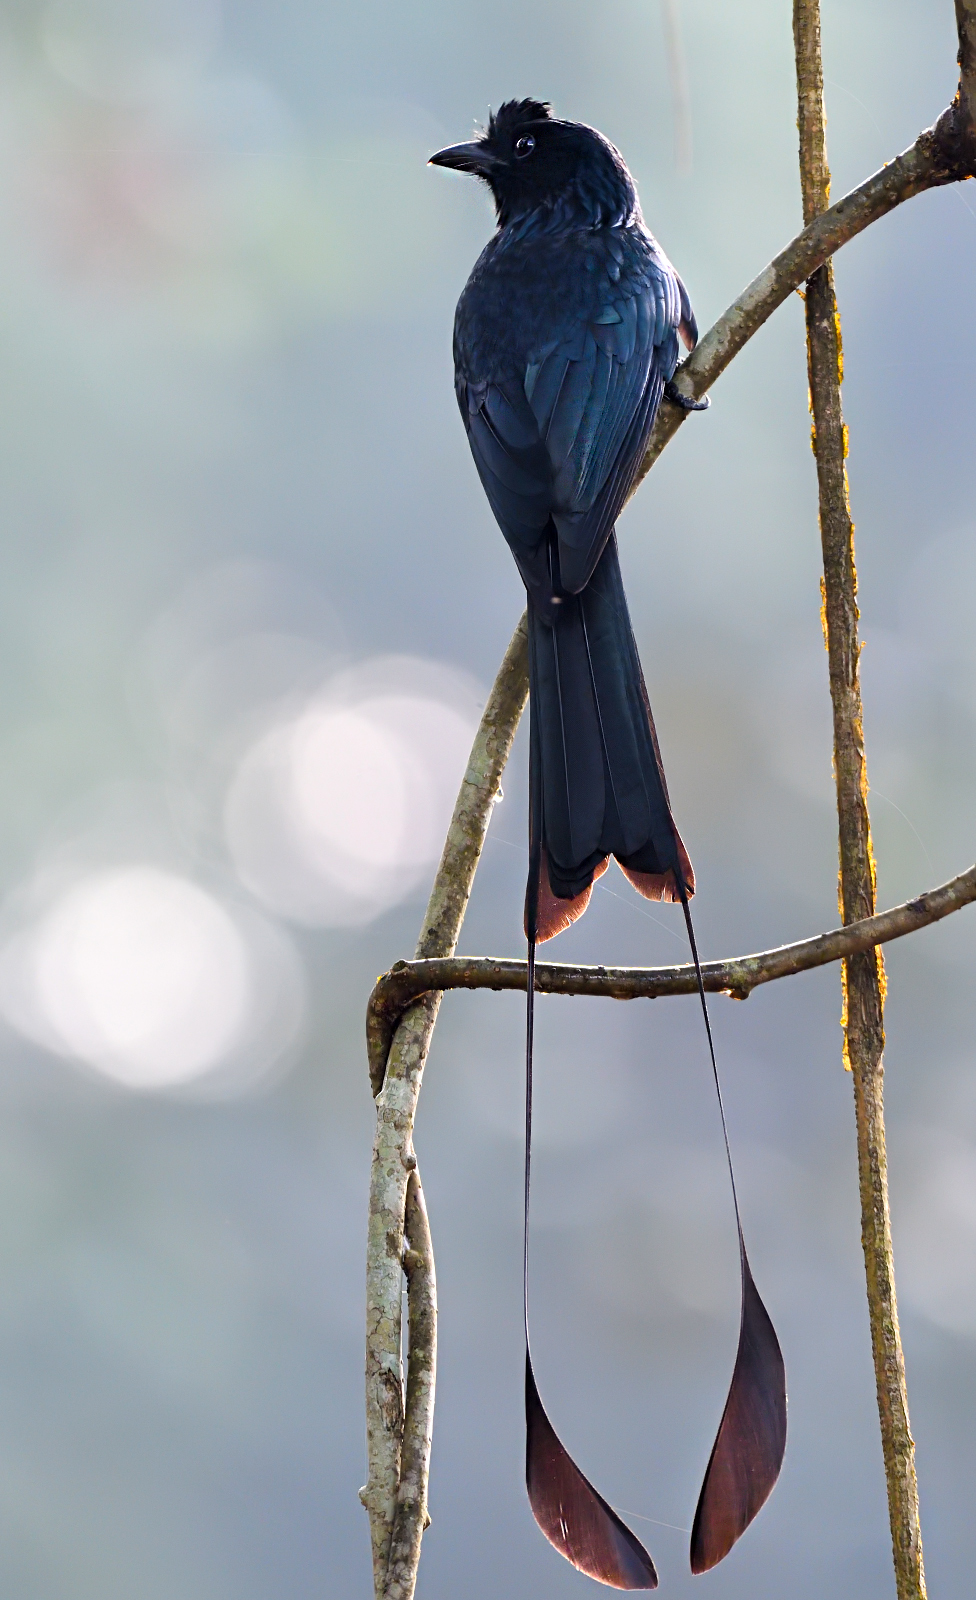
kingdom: Animalia
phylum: Chordata
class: Aves
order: Passeriformes
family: Dicruridae
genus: Dicrurus
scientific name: Dicrurus paradiseus
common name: Greater racket-tailed drongo
